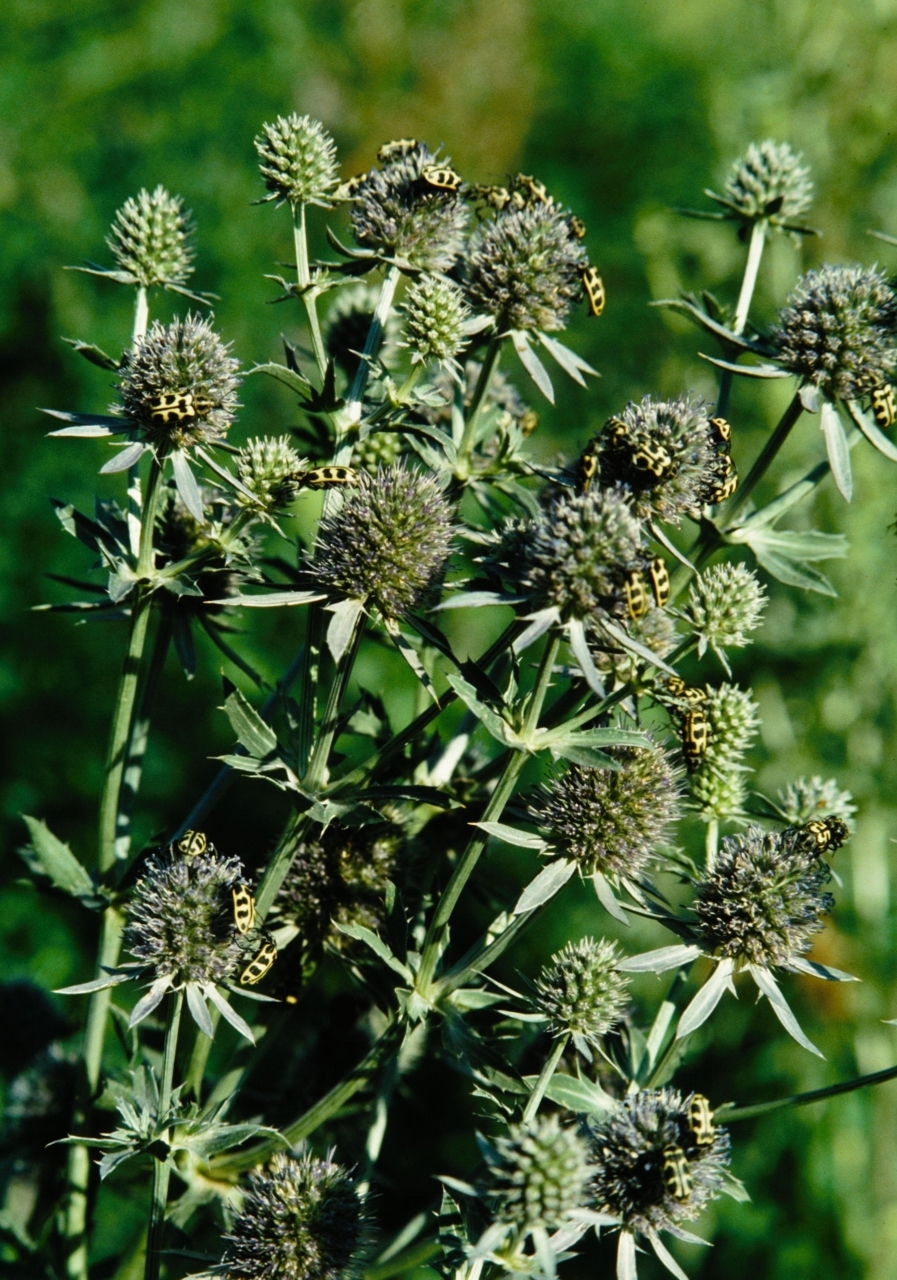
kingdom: Animalia
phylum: Arthropoda
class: Insecta
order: Coleoptera
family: Melyridae
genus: Astylus
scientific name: Astylus atromaculatus
